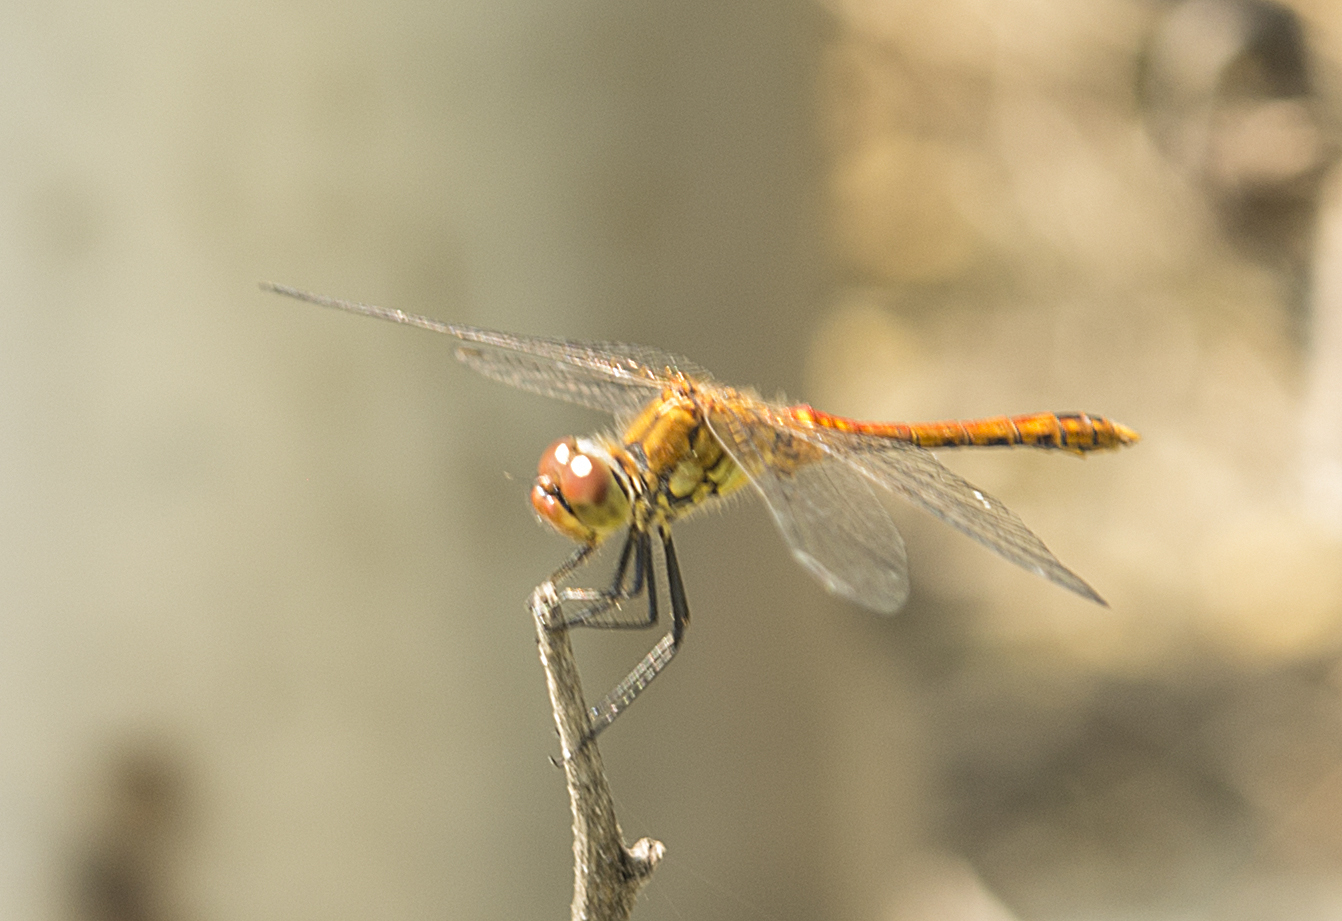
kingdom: Animalia
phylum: Arthropoda
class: Insecta
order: Odonata
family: Libellulidae
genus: Sympetrum
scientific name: Sympetrum sanguineum
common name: Ruddy darter
